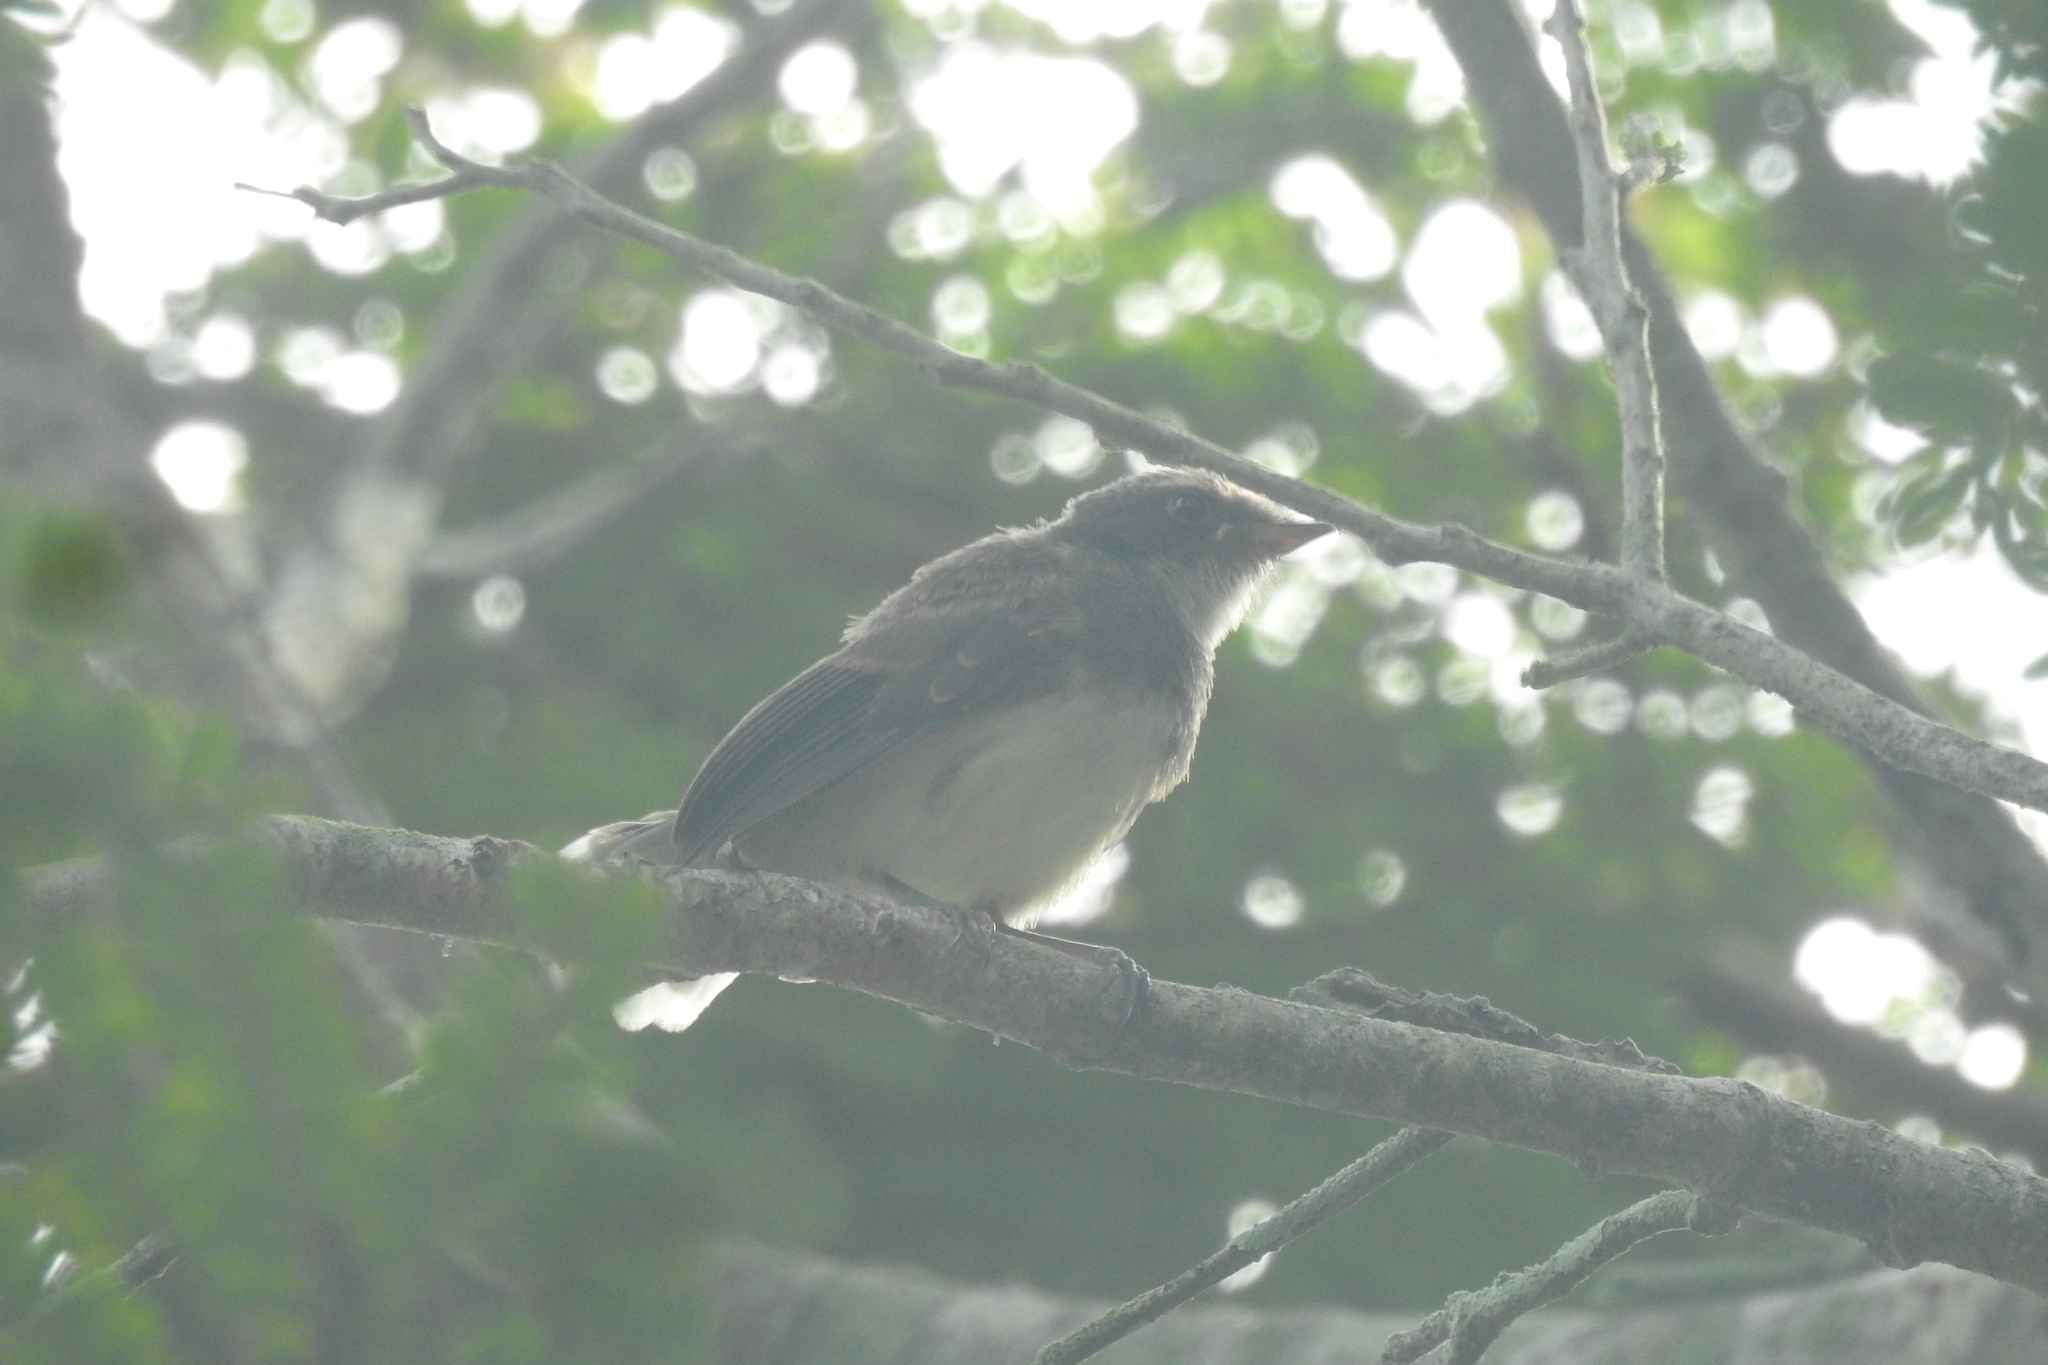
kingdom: Animalia
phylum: Chordata
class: Aves
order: Passeriformes
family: Rhipiduridae
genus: Rhipidura
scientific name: Rhipidura javanica
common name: Pied fantail
